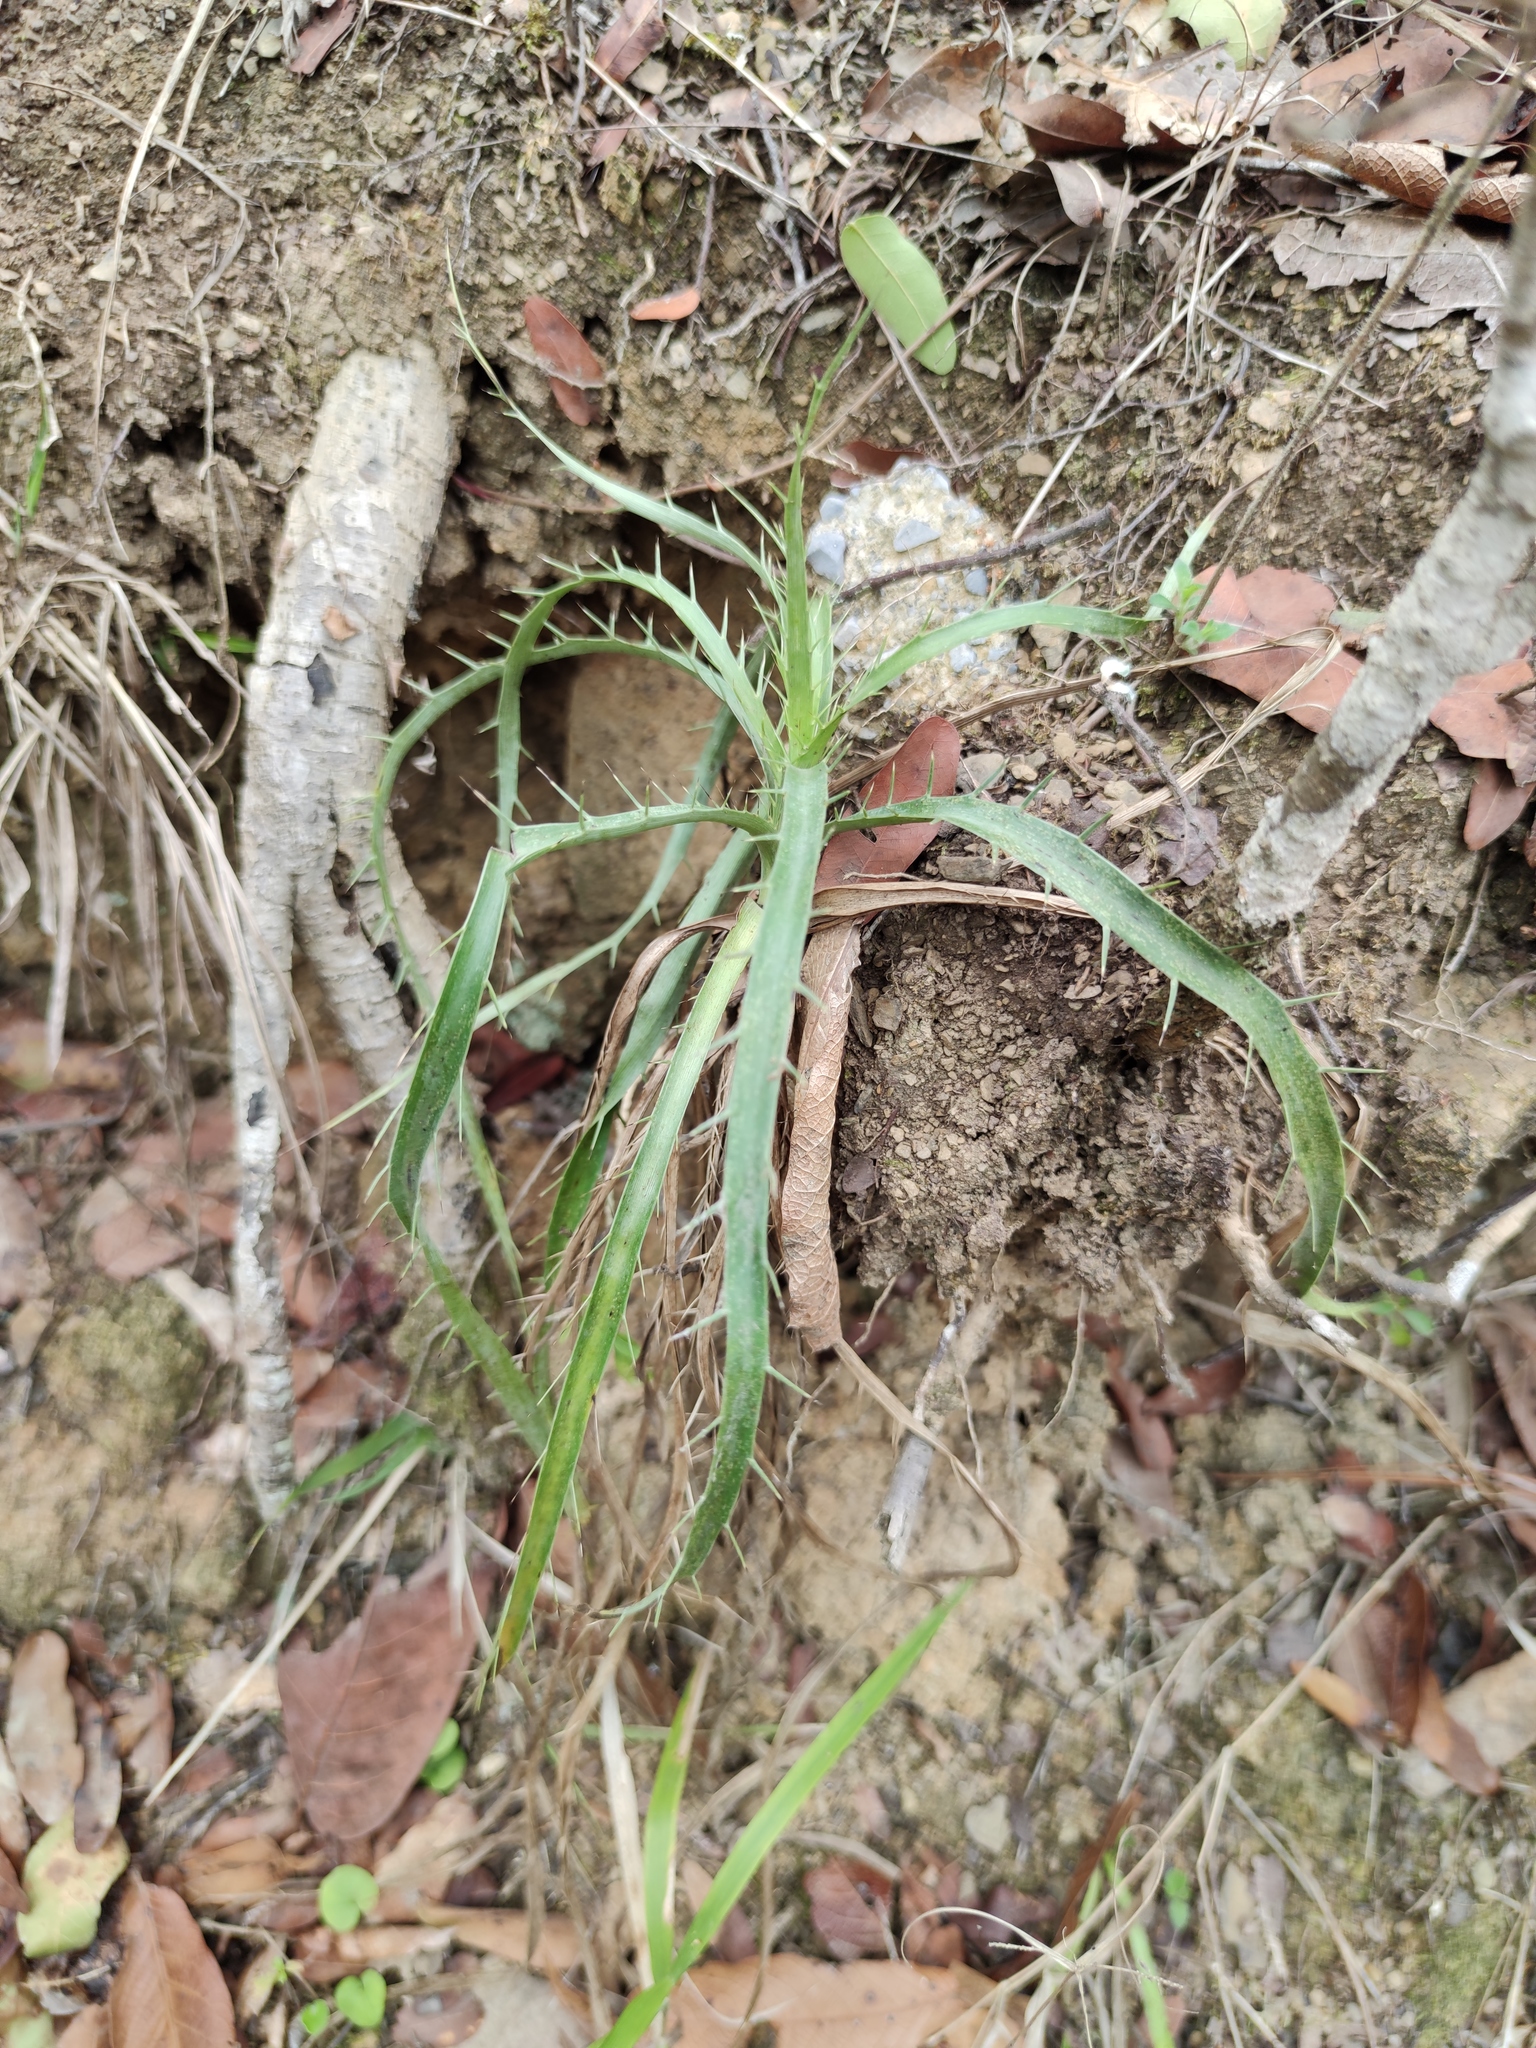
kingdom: Plantae
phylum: Tracheophyta
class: Magnoliopsida
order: Apiales
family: Apiaceae
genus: Eryngium
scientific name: Eryngium longifolium
